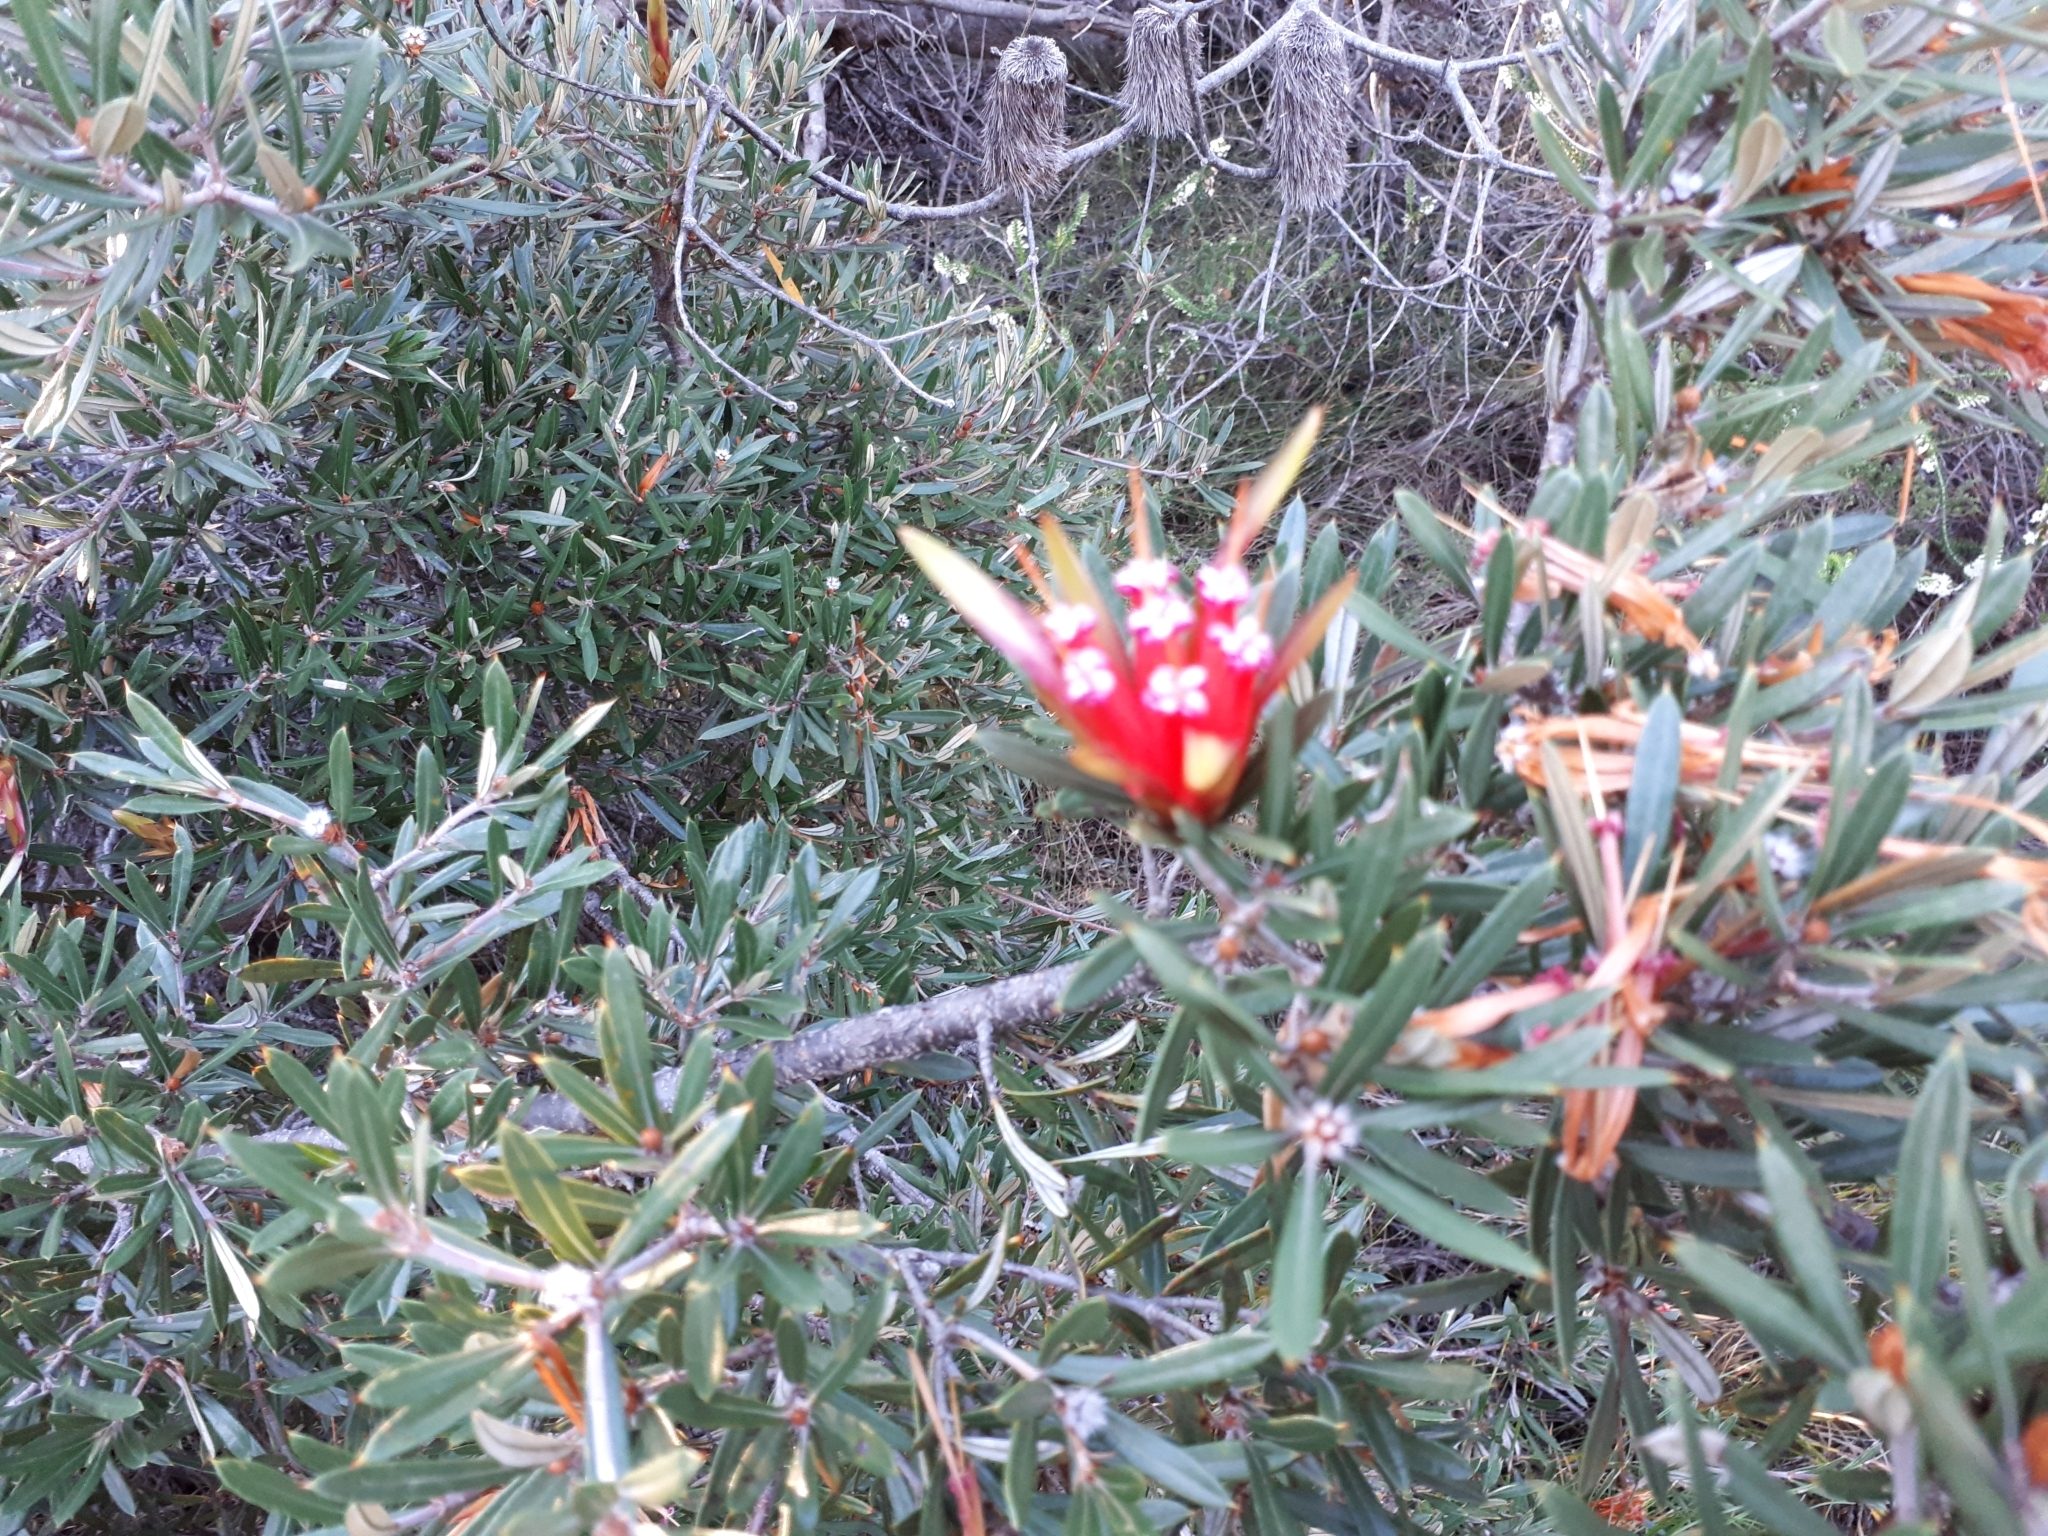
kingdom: Plantae
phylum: Tracheophyta
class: Magnoliopsida
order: Proteales
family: Proteaceae
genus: Lambertia
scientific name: Lambertia formosa
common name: Mountain-devil
